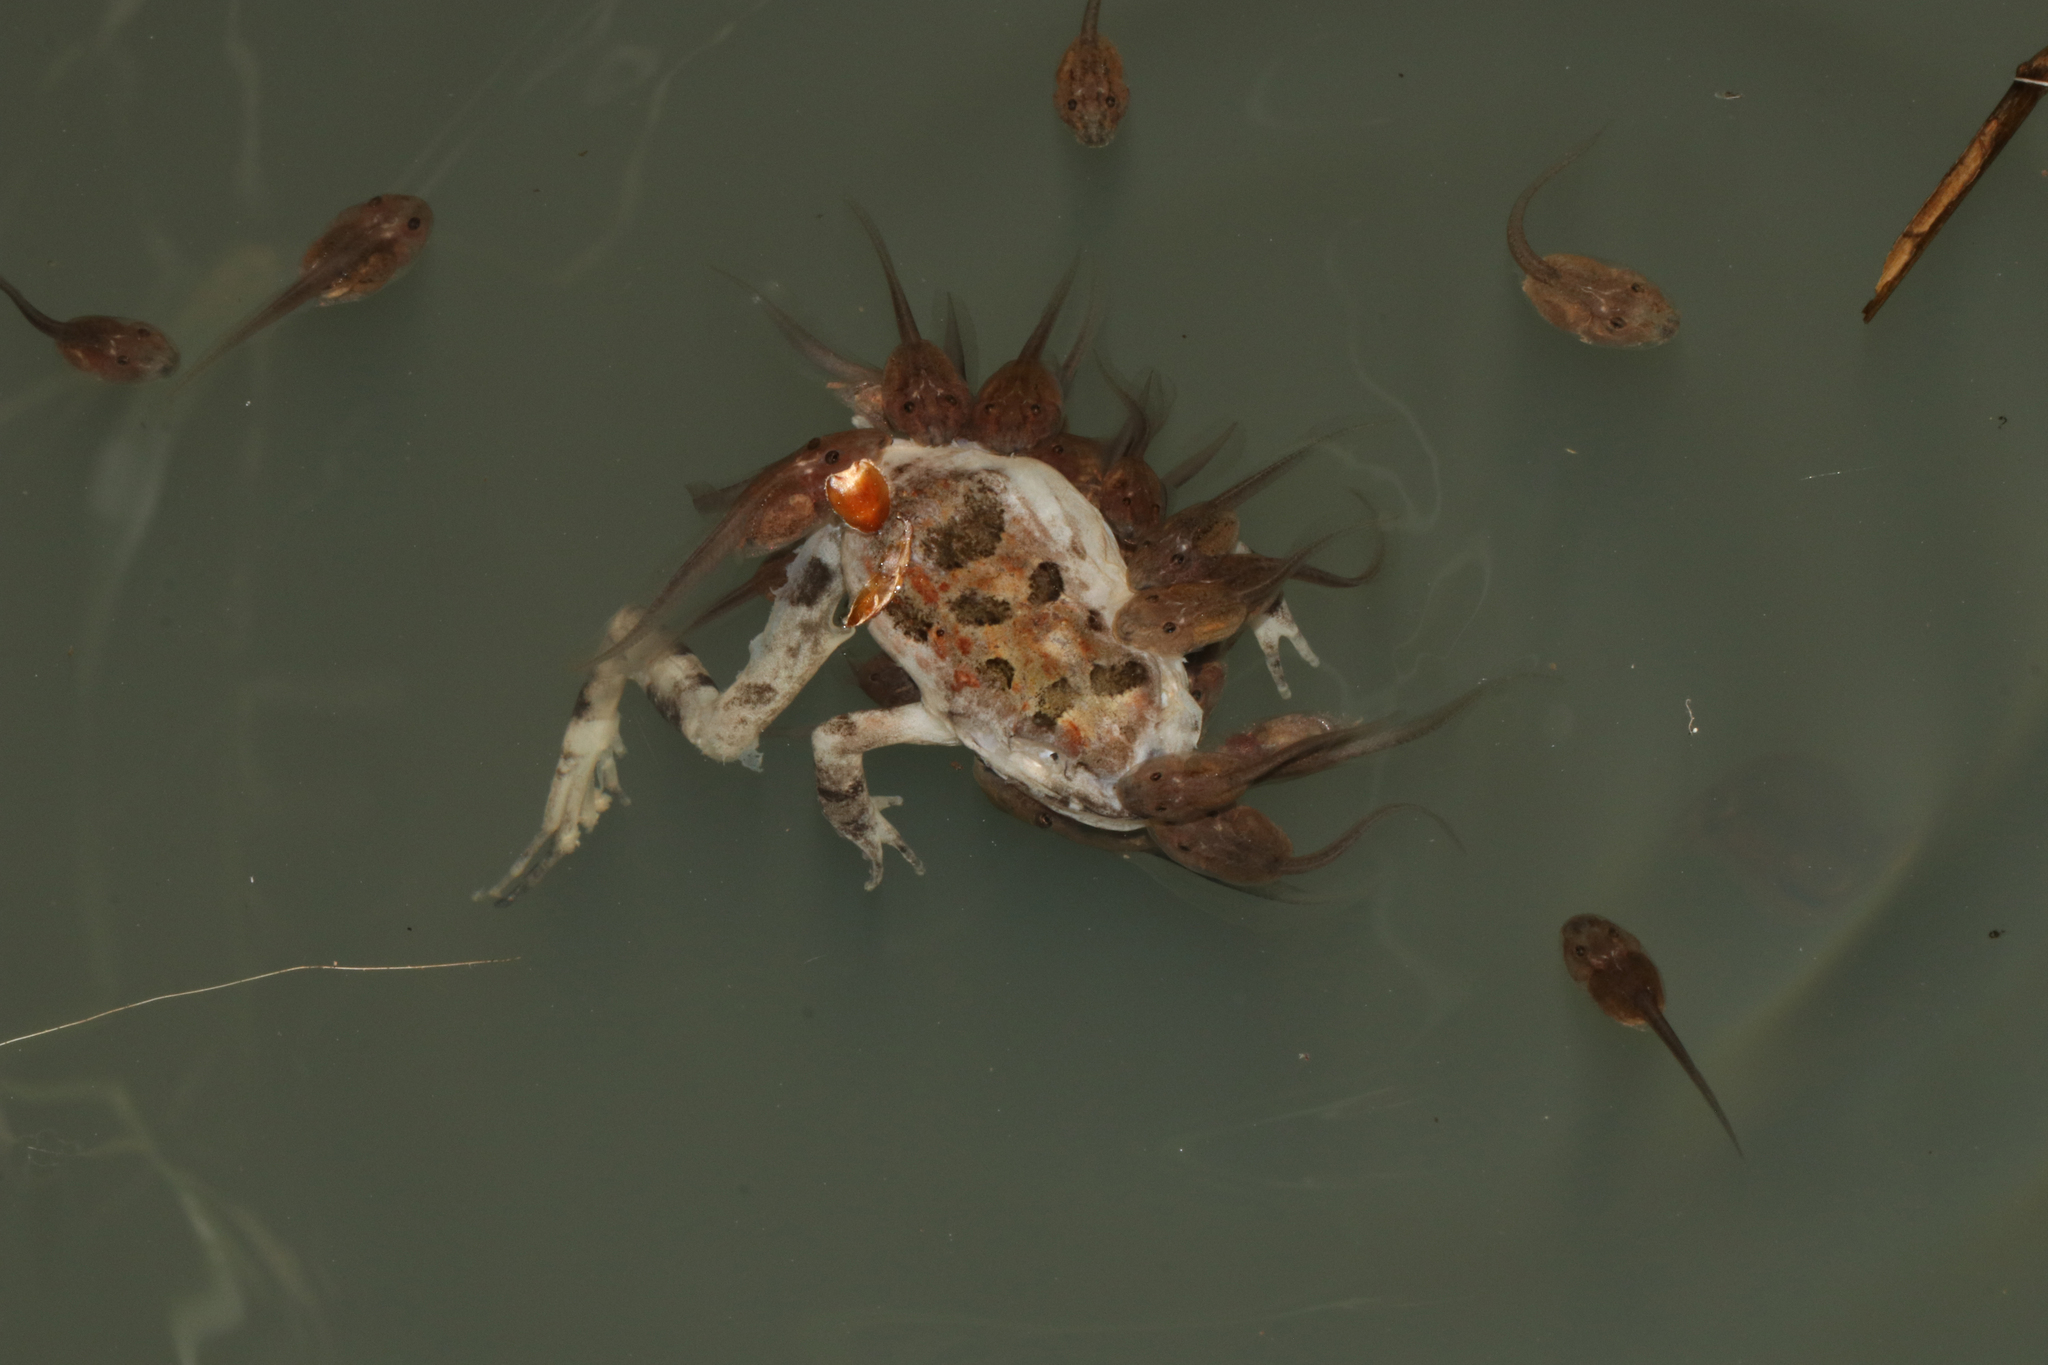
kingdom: Animalia
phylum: Chordata
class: Amphibia
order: Anura
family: Pyxicephalidae
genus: Strongylopus
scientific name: Strongylopus grayii
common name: Gray's stream frog
